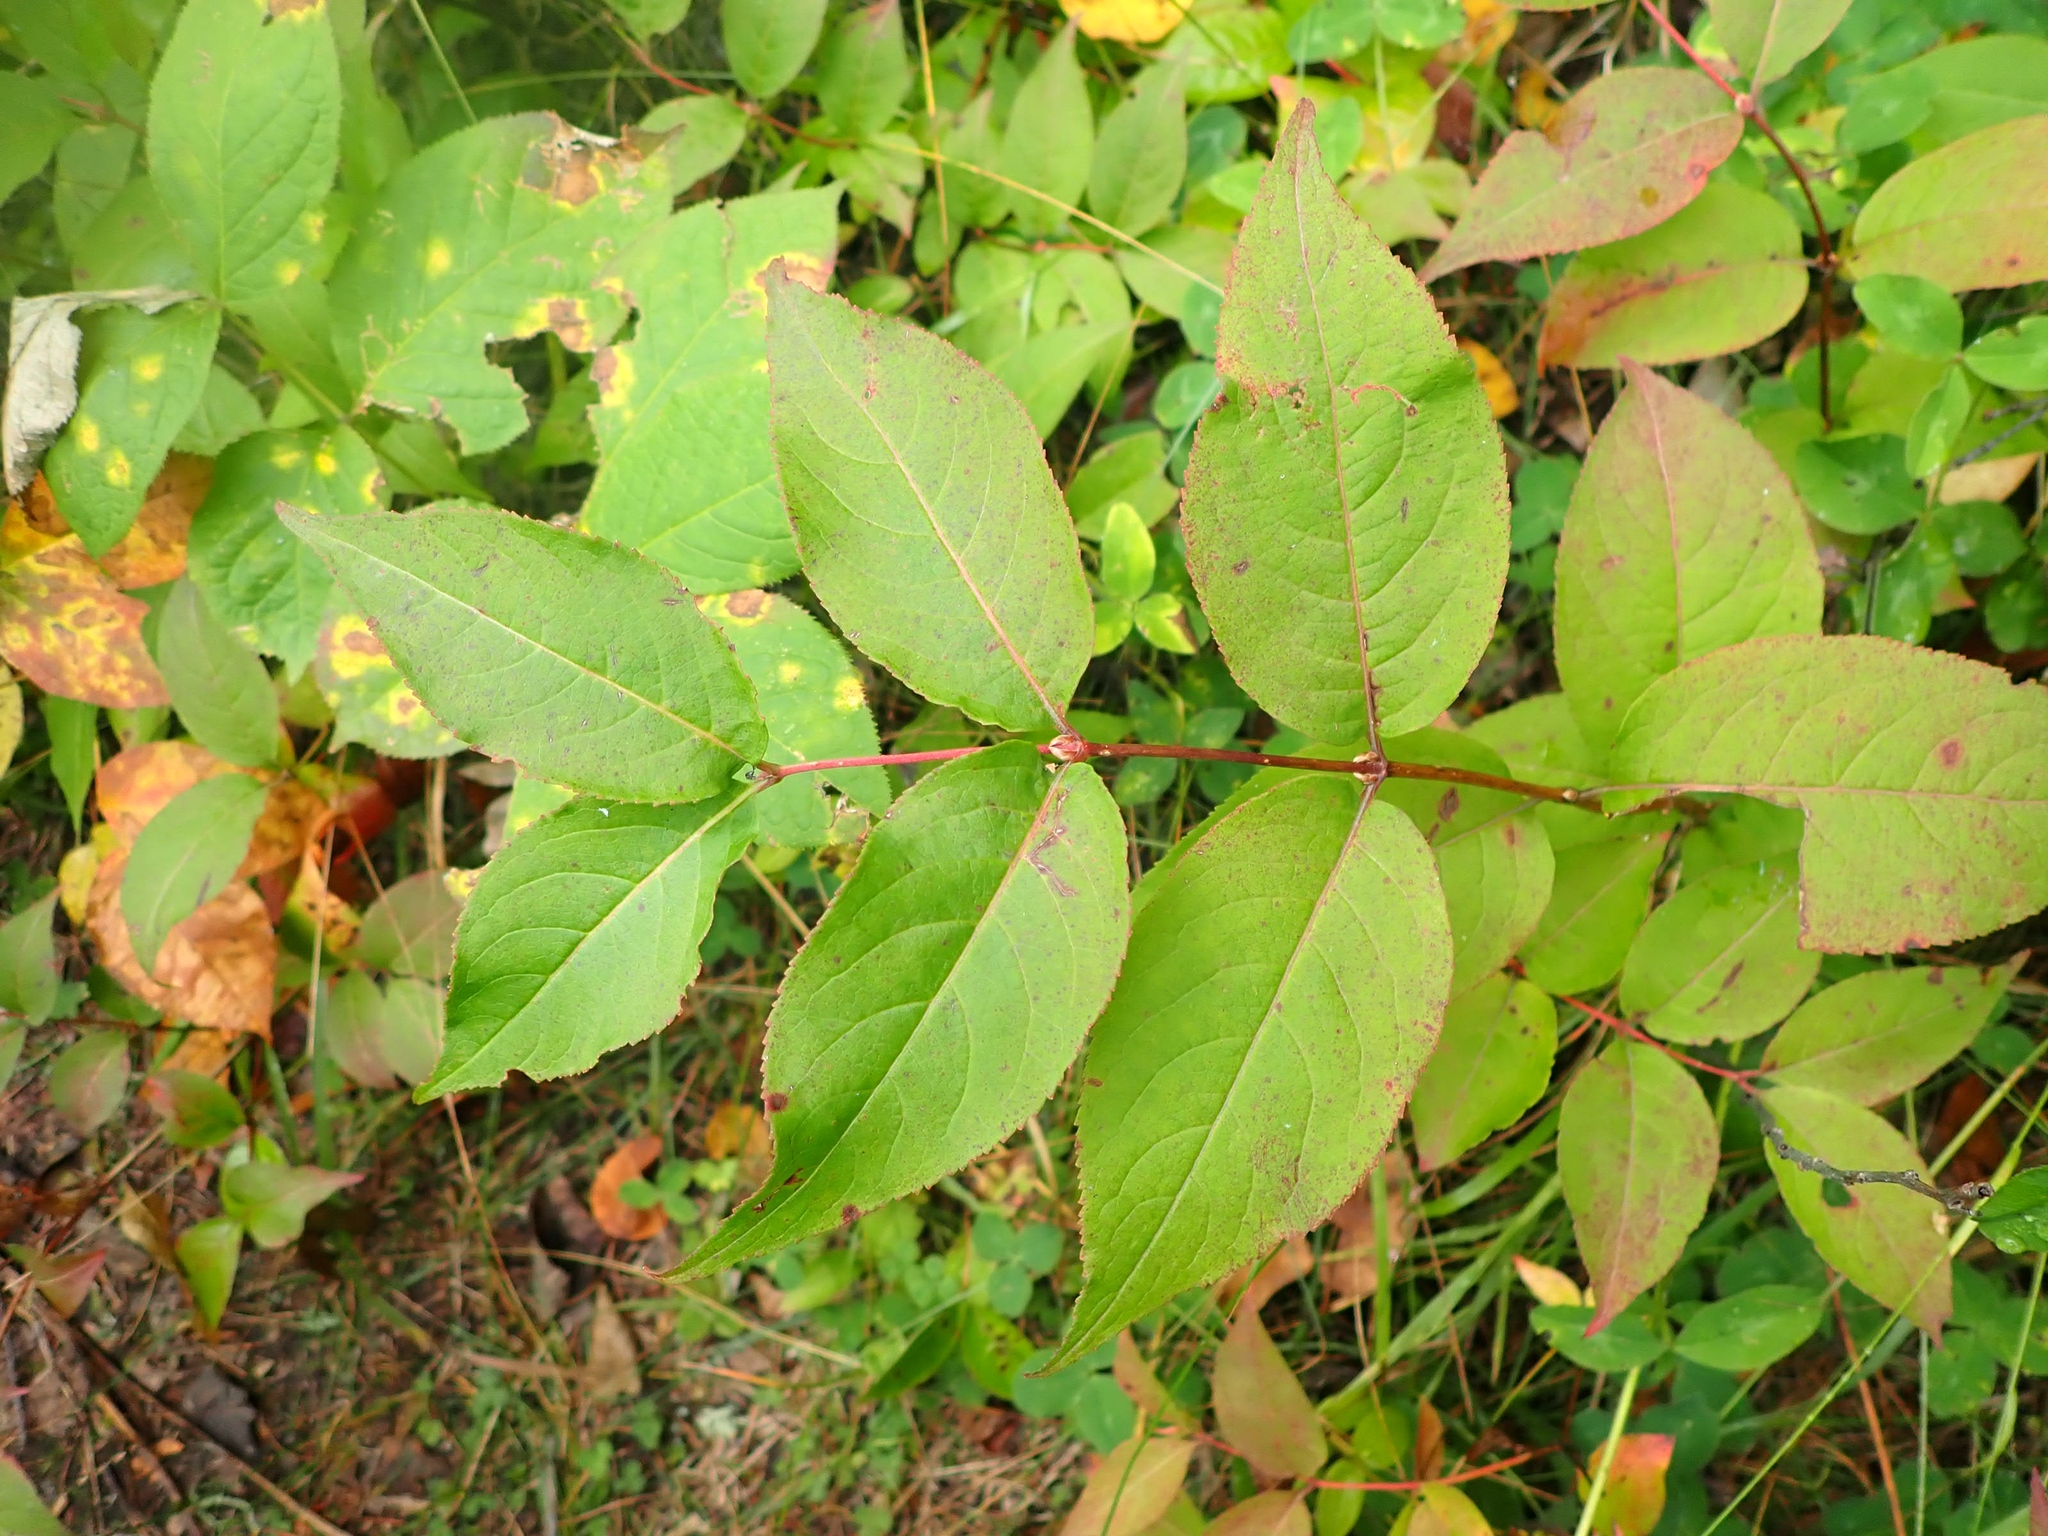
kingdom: Plantae
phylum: Tracheophyta
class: Magnoliopsida
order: Dipsacales
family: Caprifoliaceae
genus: Diervilla
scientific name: Diervilla lonicera
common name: Bush-honeysuckle
